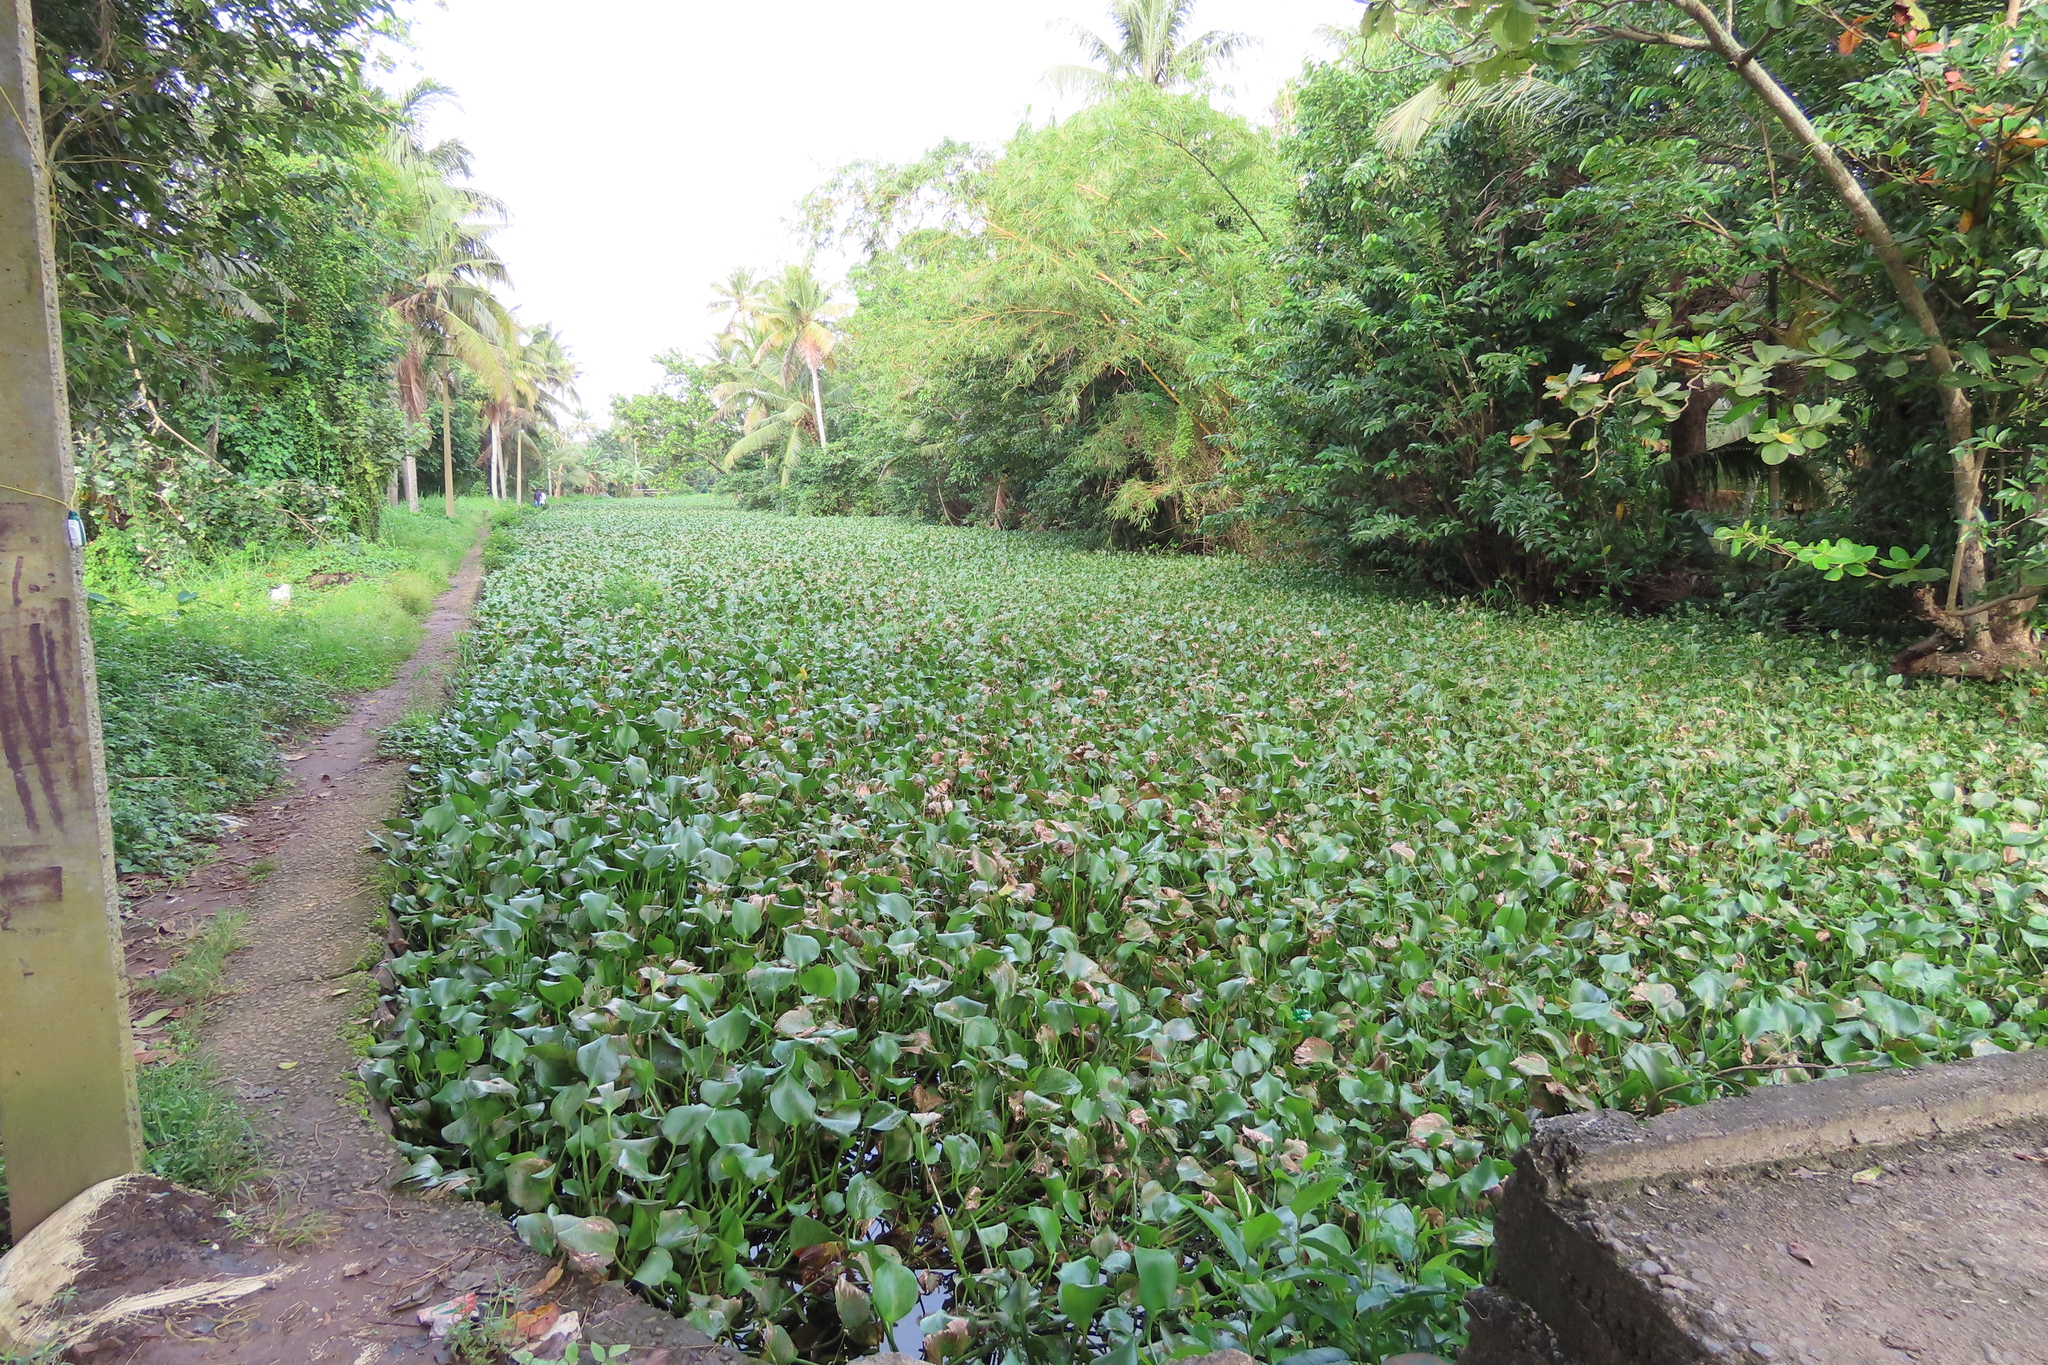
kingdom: Plantae
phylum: Tracheophyta
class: Liliopsida
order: Commelinales
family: Pontederiaceae
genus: Pontederia
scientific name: Pontederia crassipes
